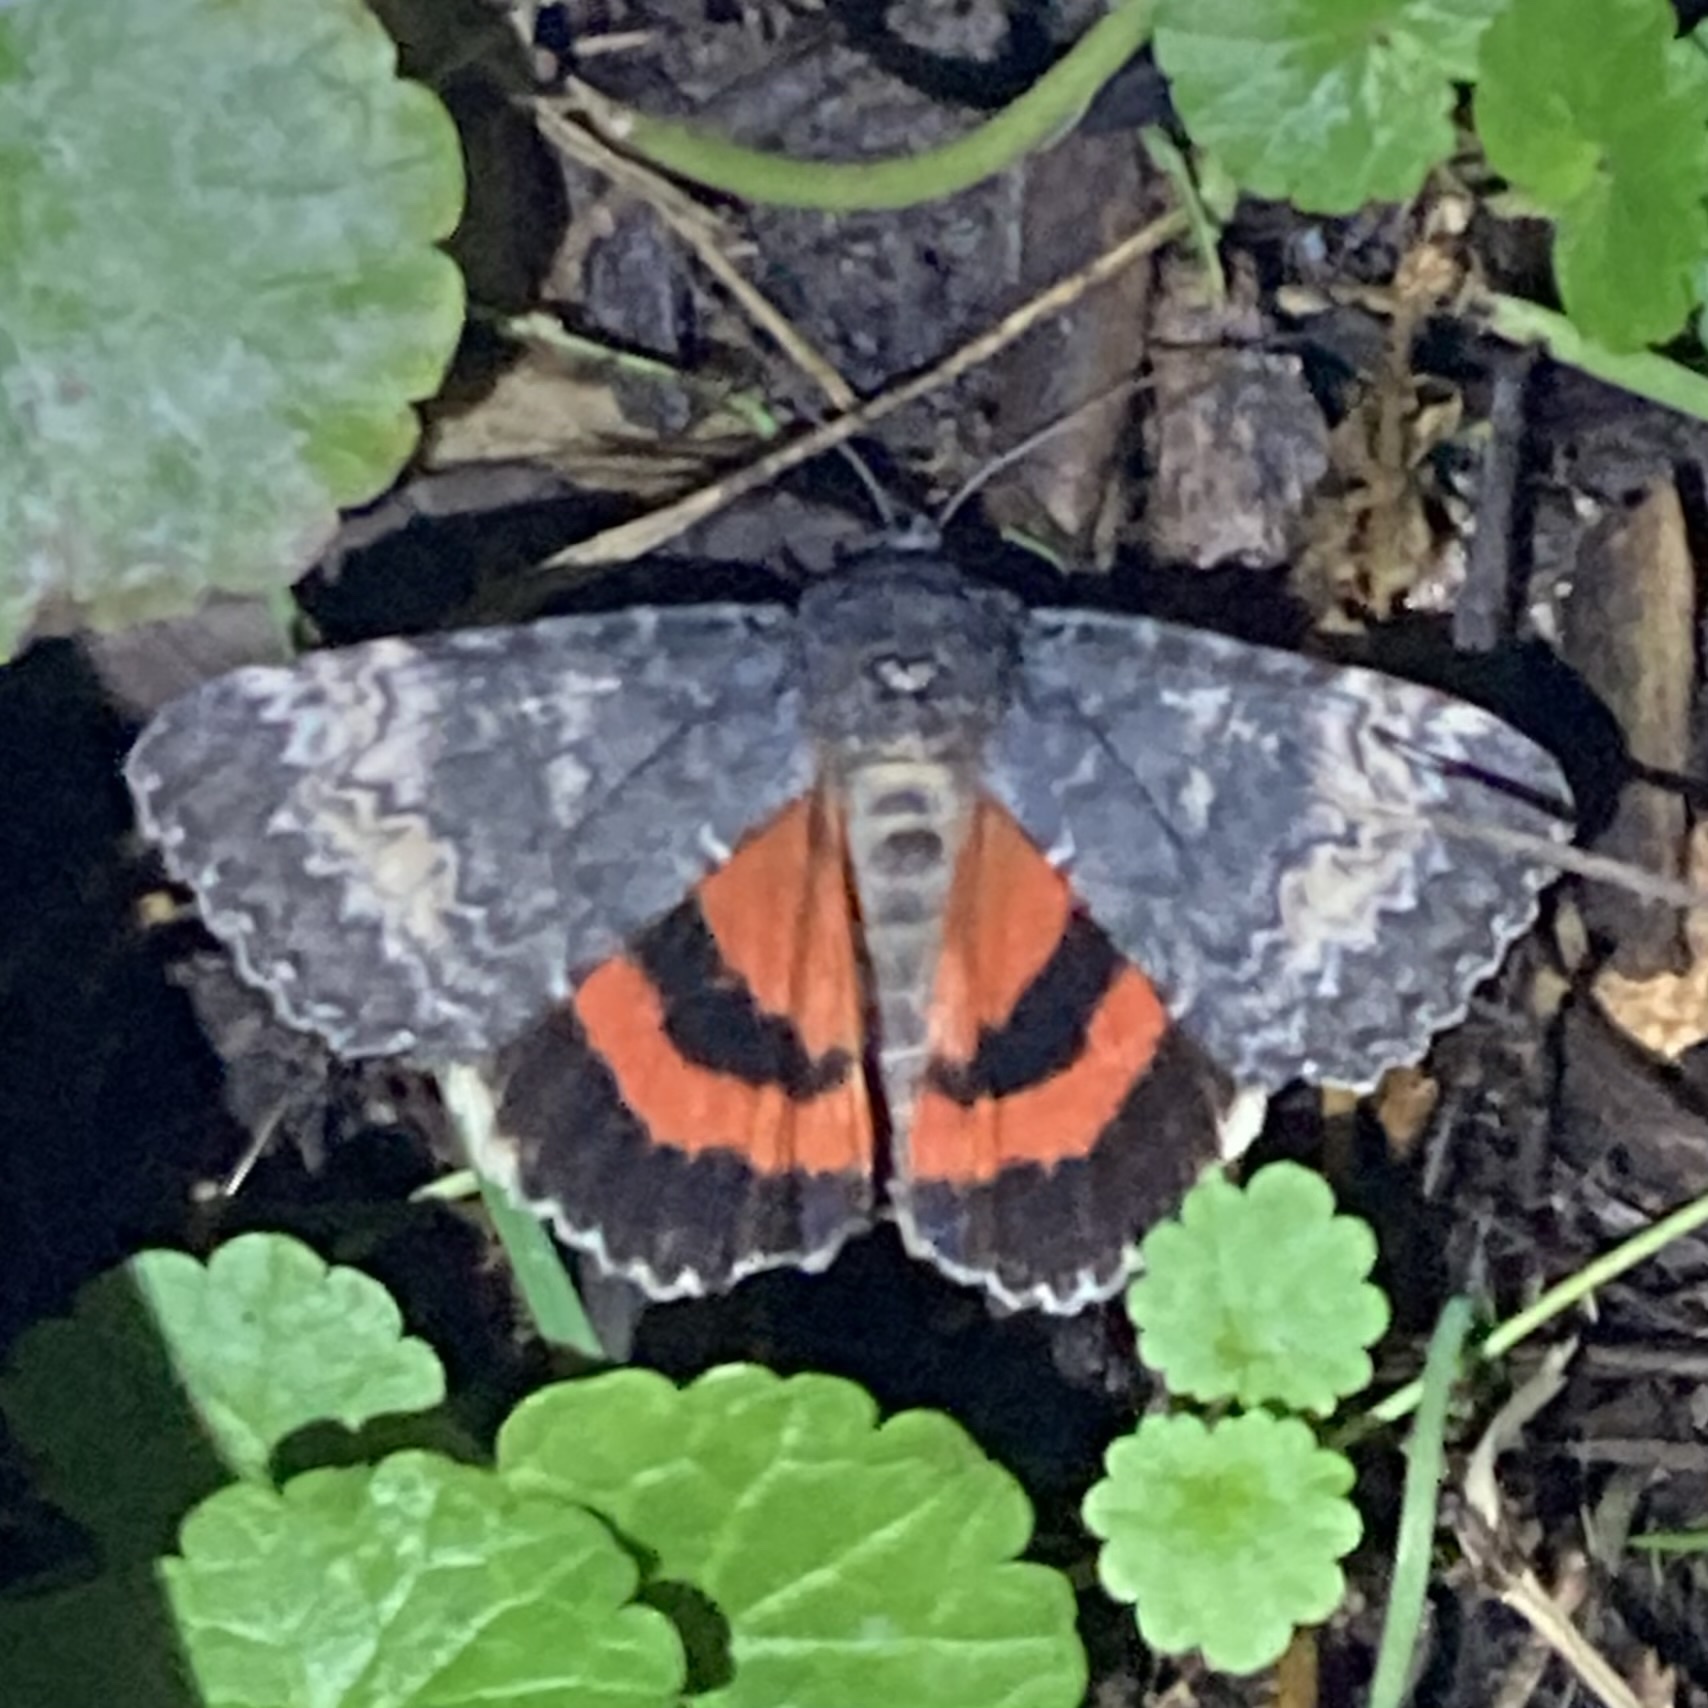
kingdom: Animalia
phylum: Arthropoda
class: Insecta
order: Lepidoptera
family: Erebidae
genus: Catocala
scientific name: Catocala briseis
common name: Briseis underwing
